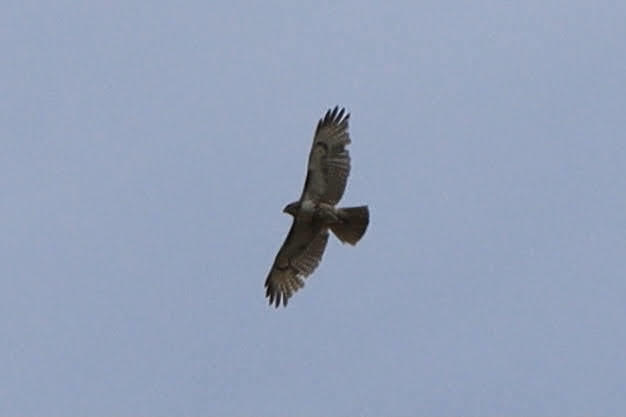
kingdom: Animalia
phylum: Chordata
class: Aves
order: Accipitriformes
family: Accipitridae
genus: Buteo
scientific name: Buteo jamaicensis
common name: Red-tailed hawk
